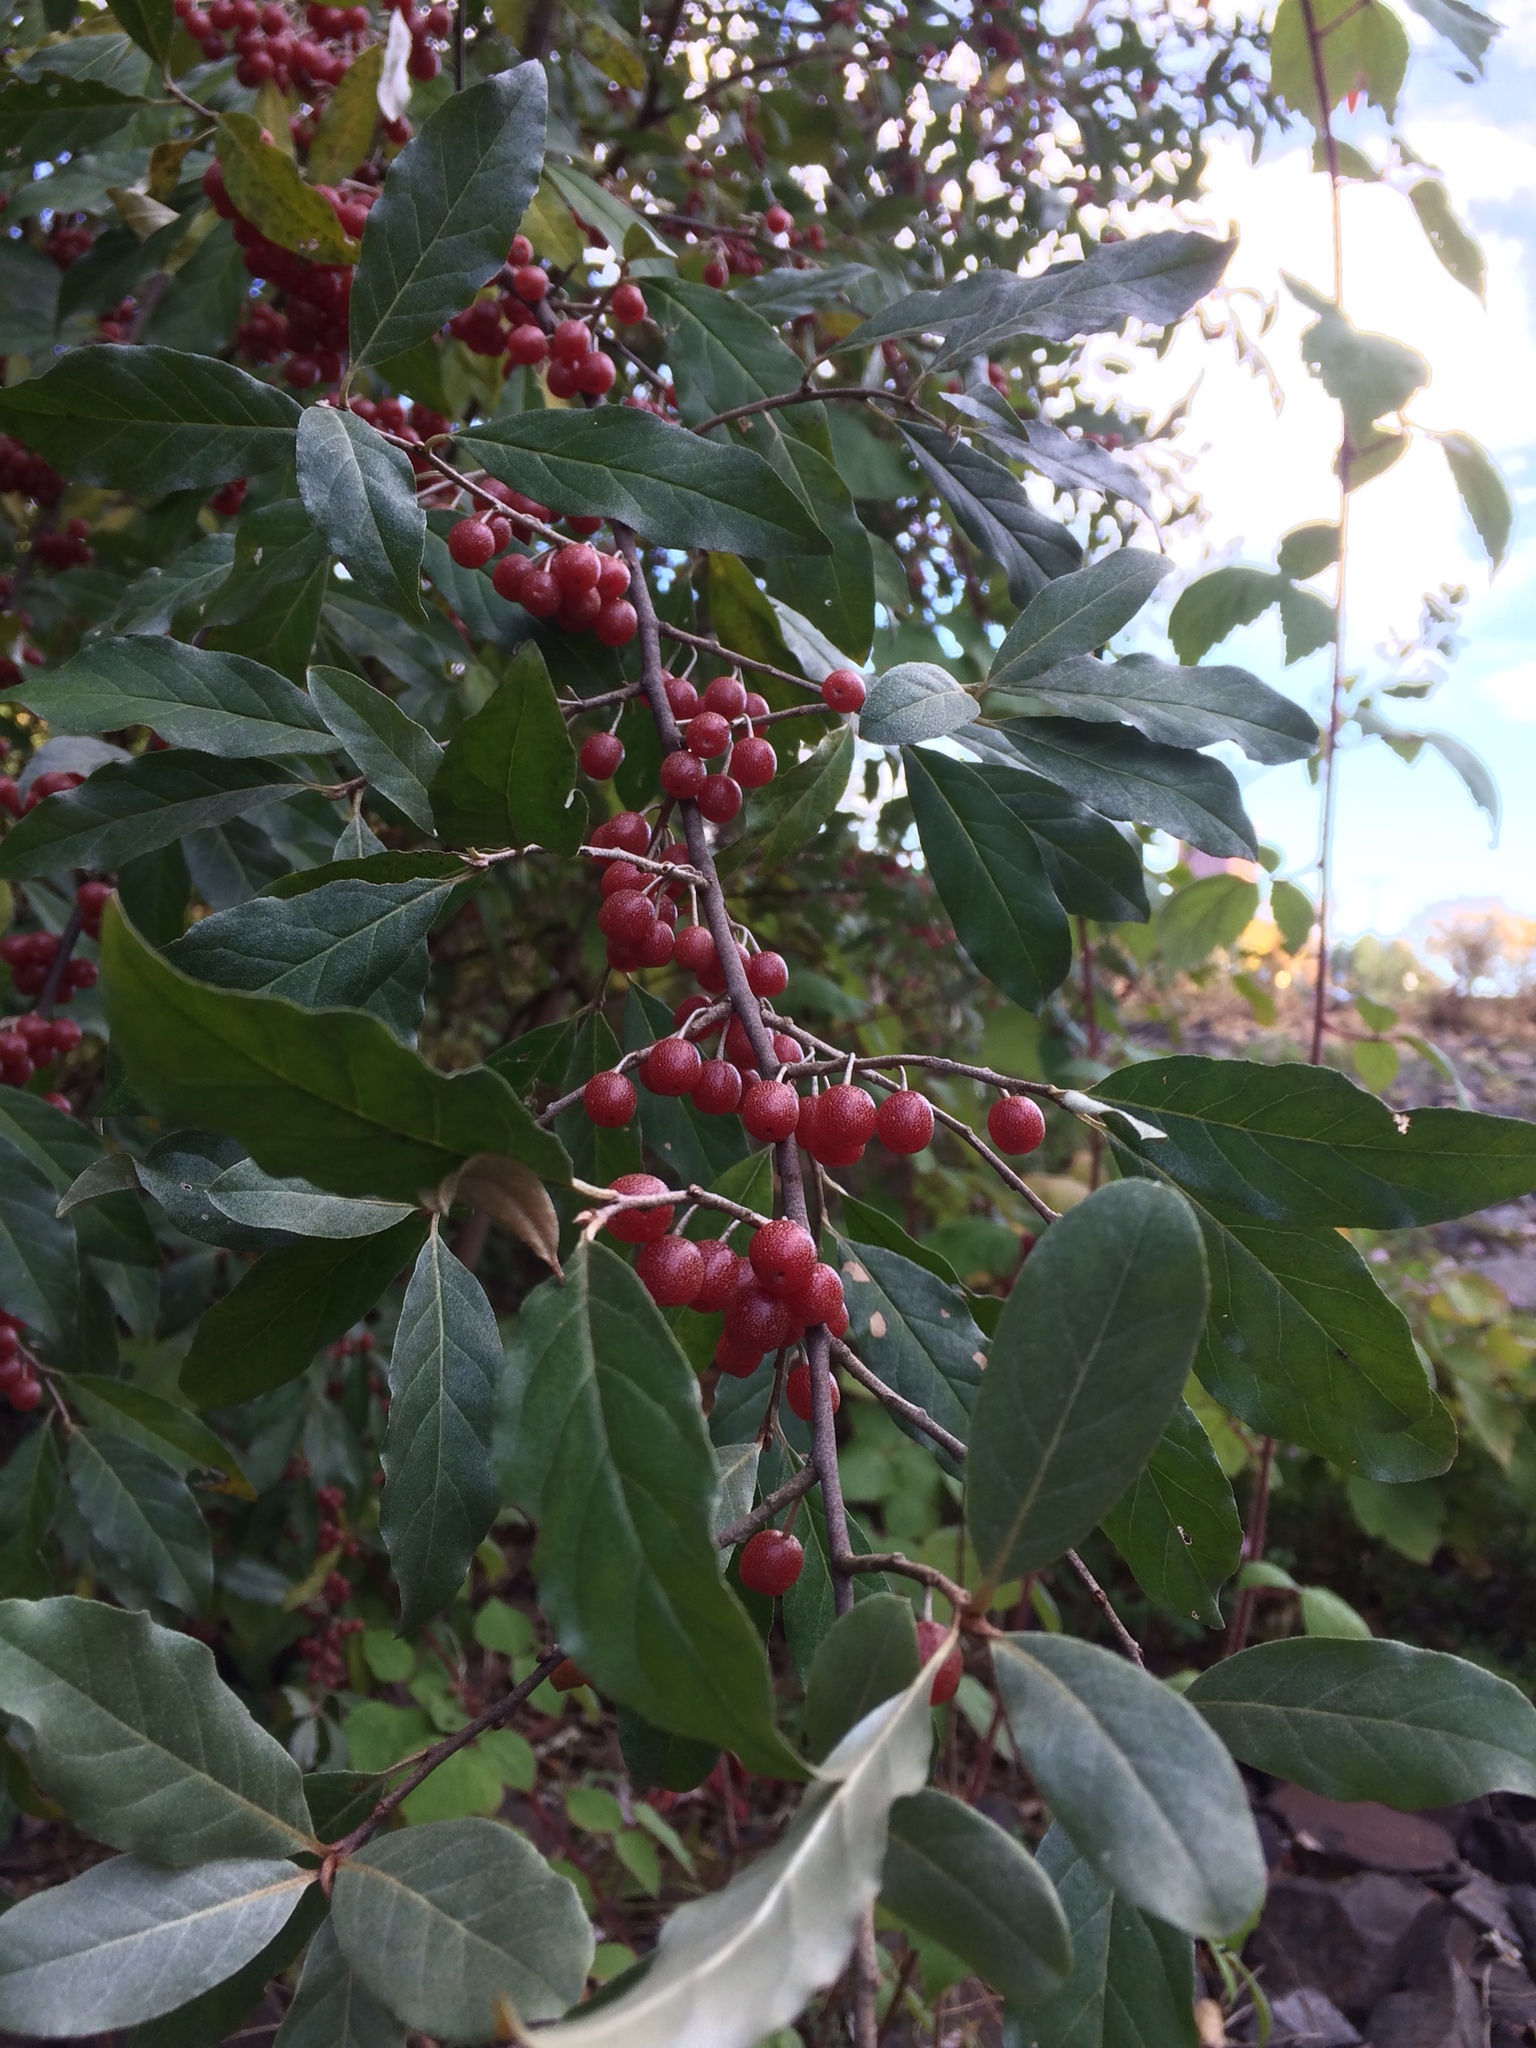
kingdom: Plantae
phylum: Tracheophyta
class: Magnoliopsida
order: Rosales
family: Elaeagnaceae
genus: Elaeagnus
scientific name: Elaeagnus umbellata
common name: Autumn olive
